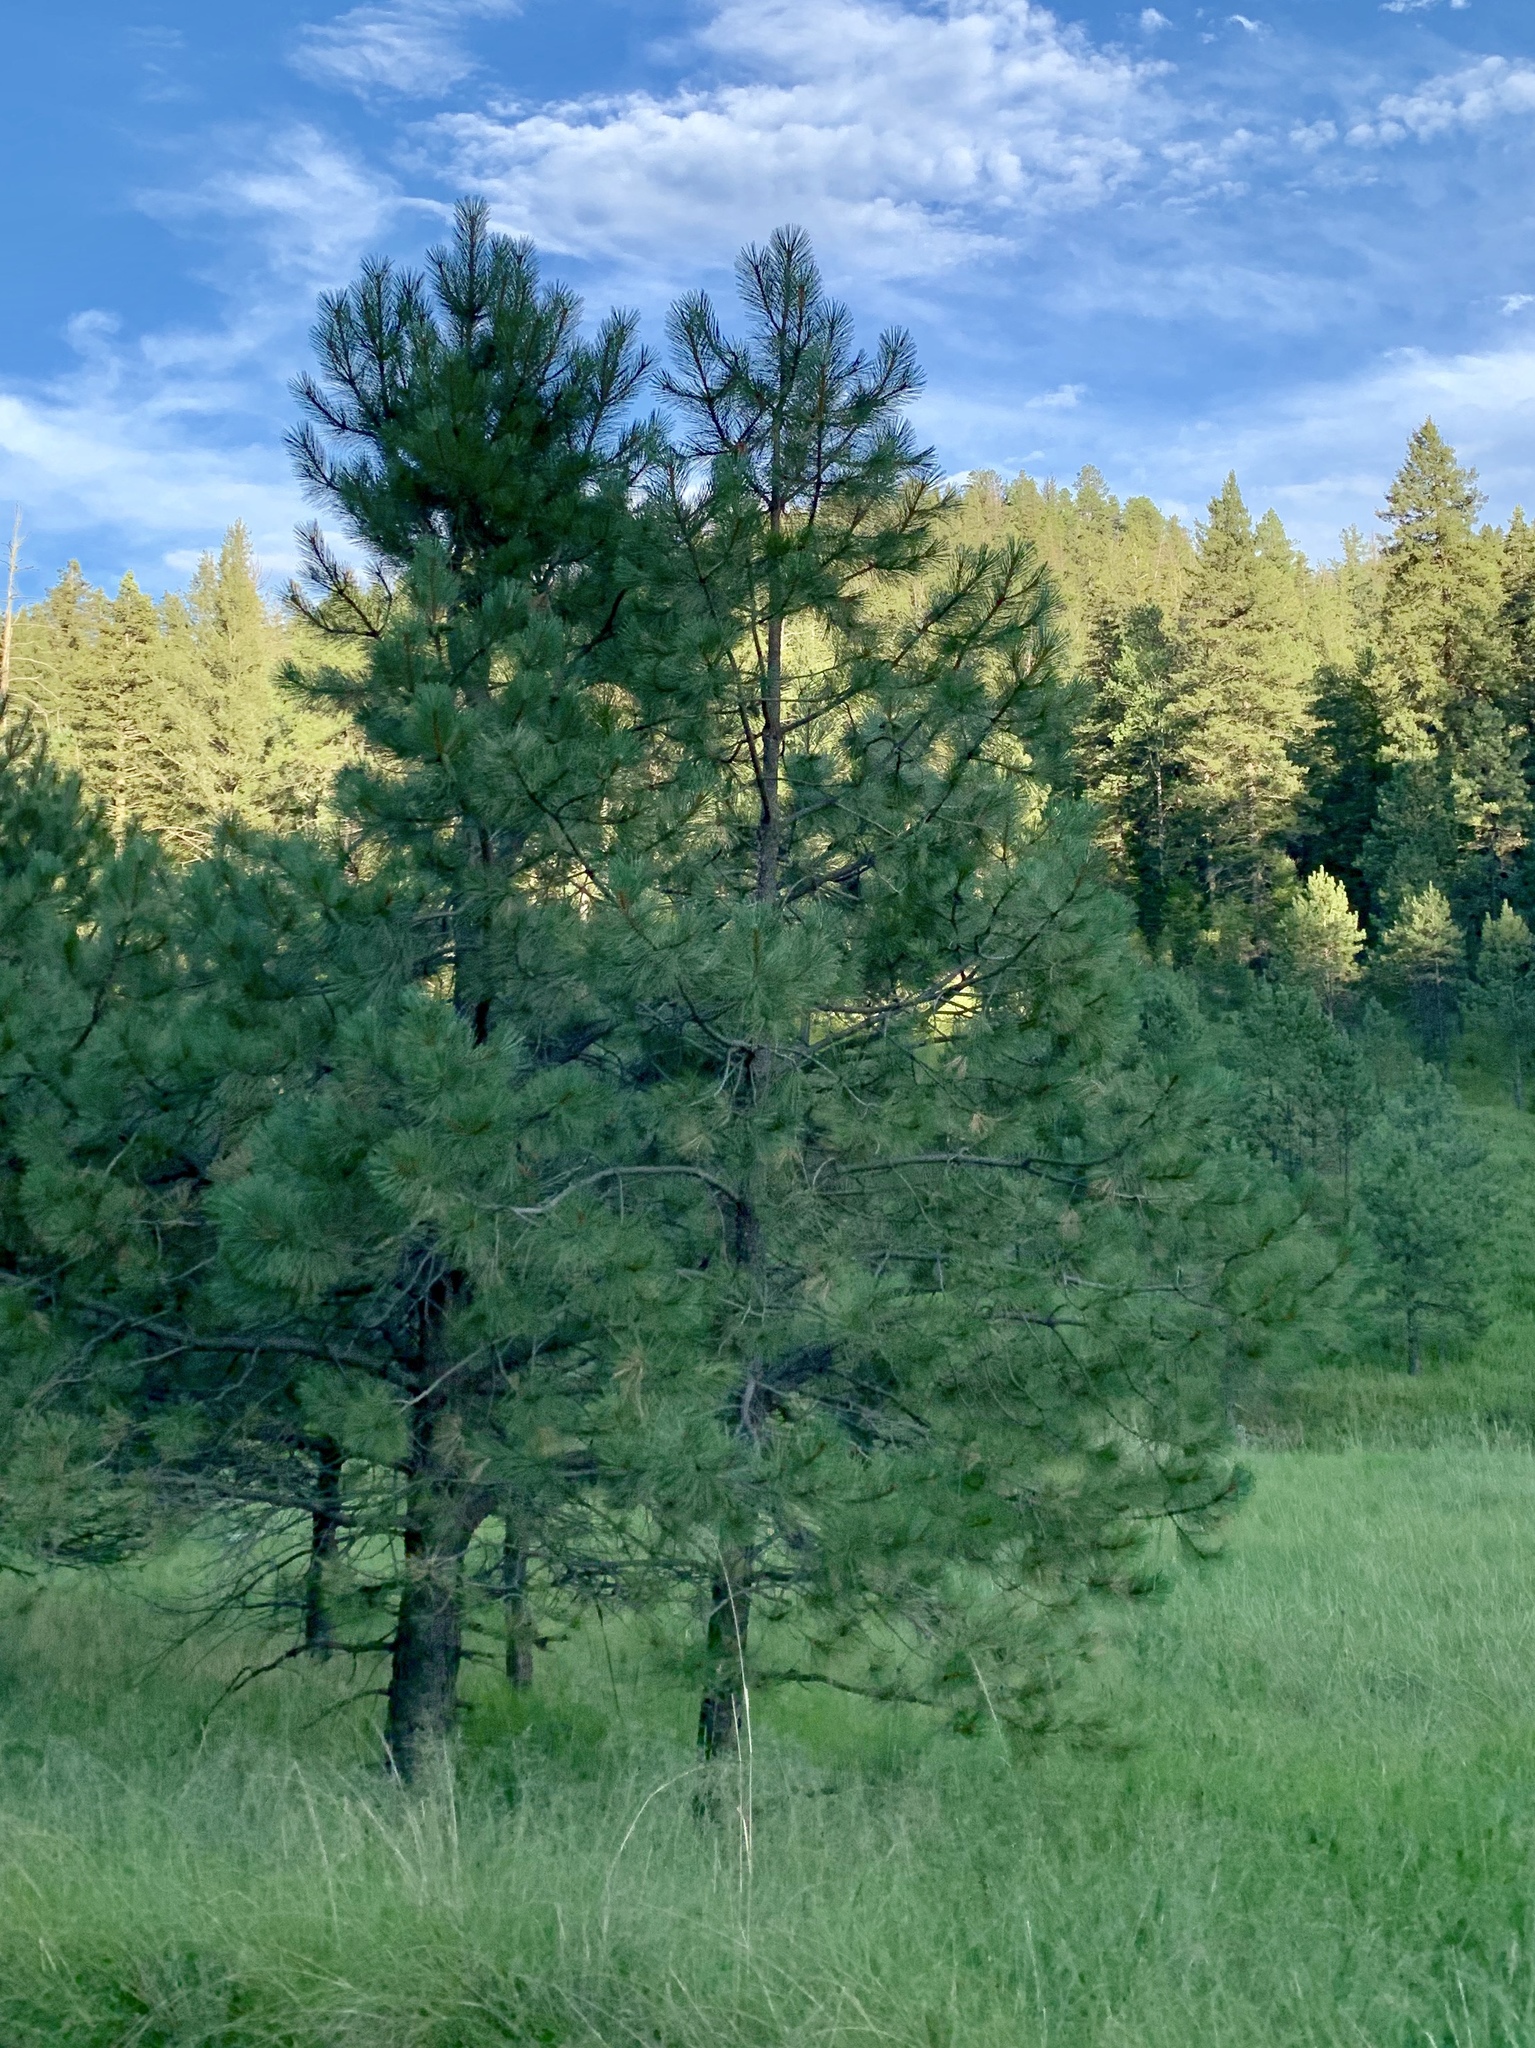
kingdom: Plantae
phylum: Tracheophyta
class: Pinopsida
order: Pinales
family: Pinaceae
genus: Pinus
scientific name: Pinus ponderosa
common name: Western yellow-pine
